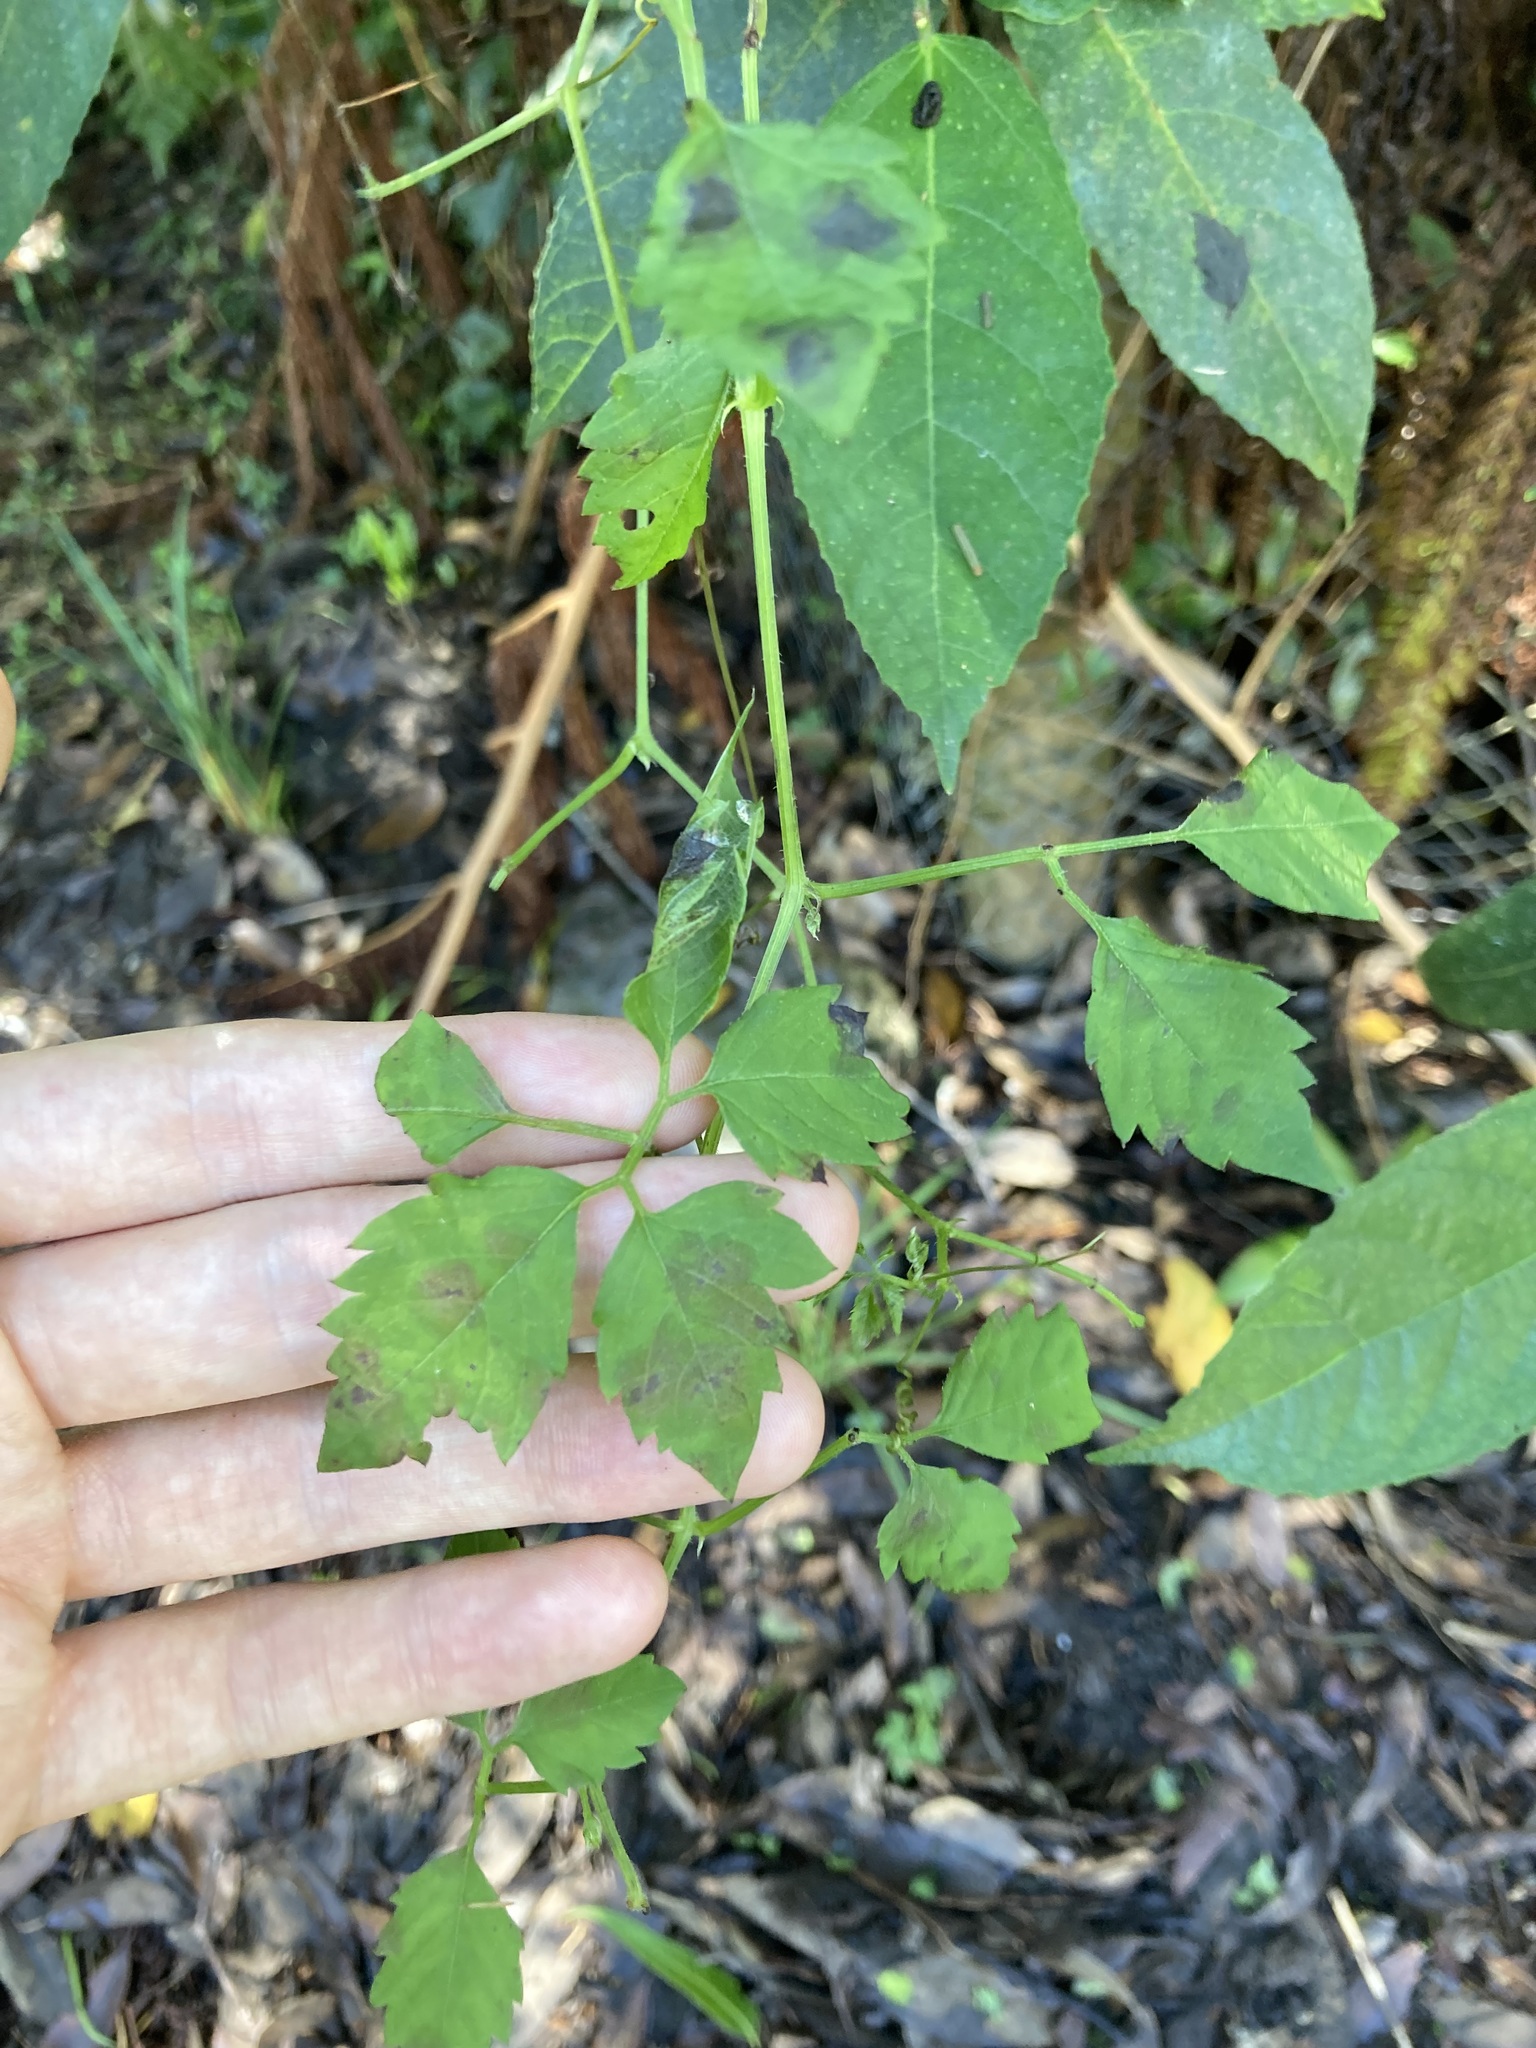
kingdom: Plantae
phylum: Tracheophyta
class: Magnoliopsida
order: Vitales
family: Vitaceae
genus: Causonis
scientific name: Causonis clematidea
